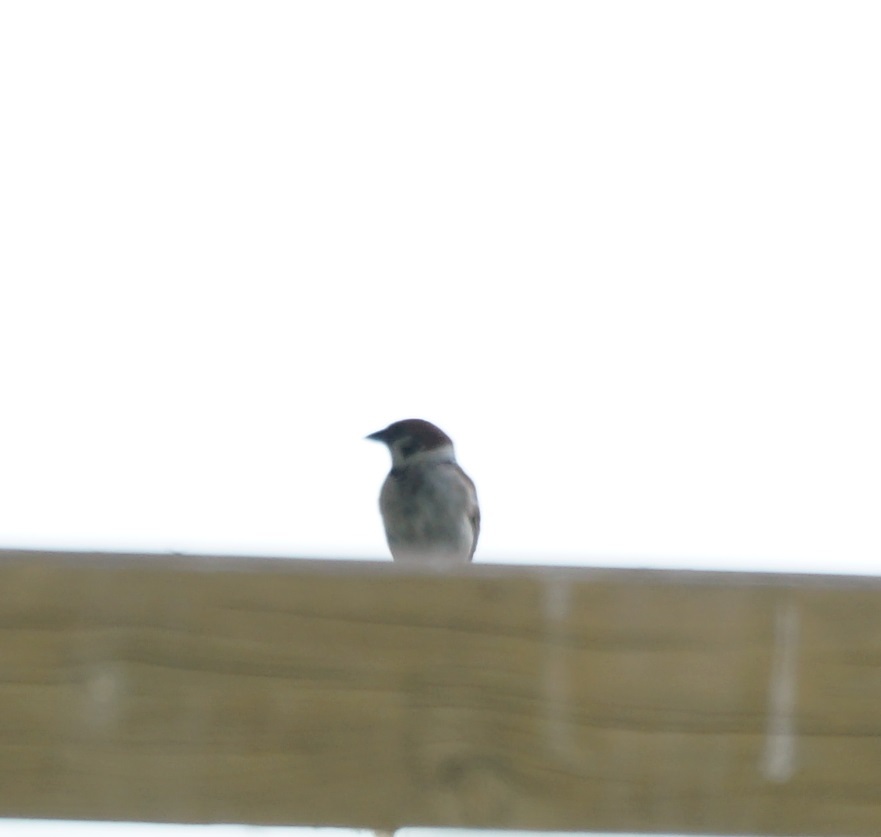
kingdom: Animalia
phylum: Chordata
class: Aves
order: Passeriformes
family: Passeridae
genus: Passer
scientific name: Passer montanus
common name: Eurasian tree sparrow
